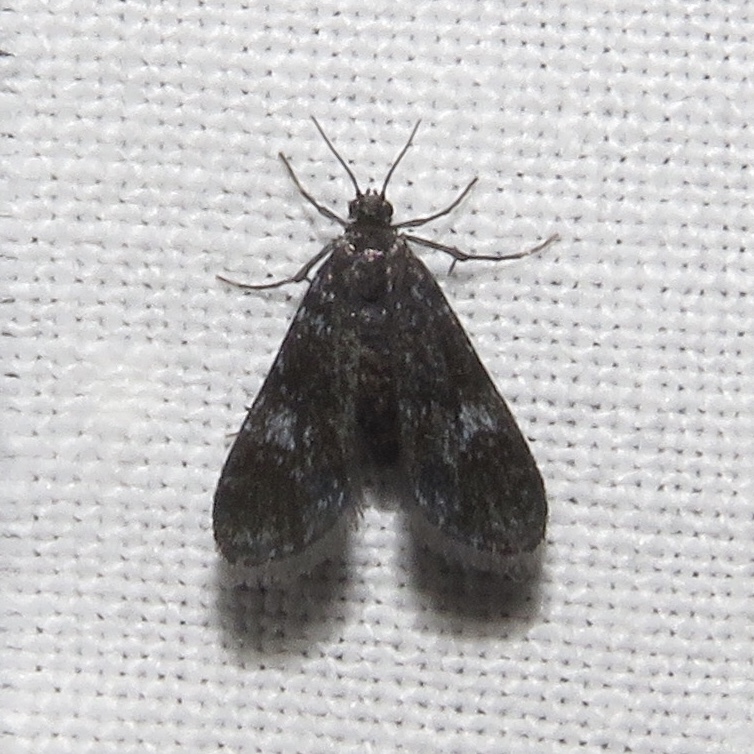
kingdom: Animalia
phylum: Arthropoda
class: Insecta
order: Lepidoptera
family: Crambidae
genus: Elophila
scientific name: Elophila tinealis
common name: Black duckweed moth
